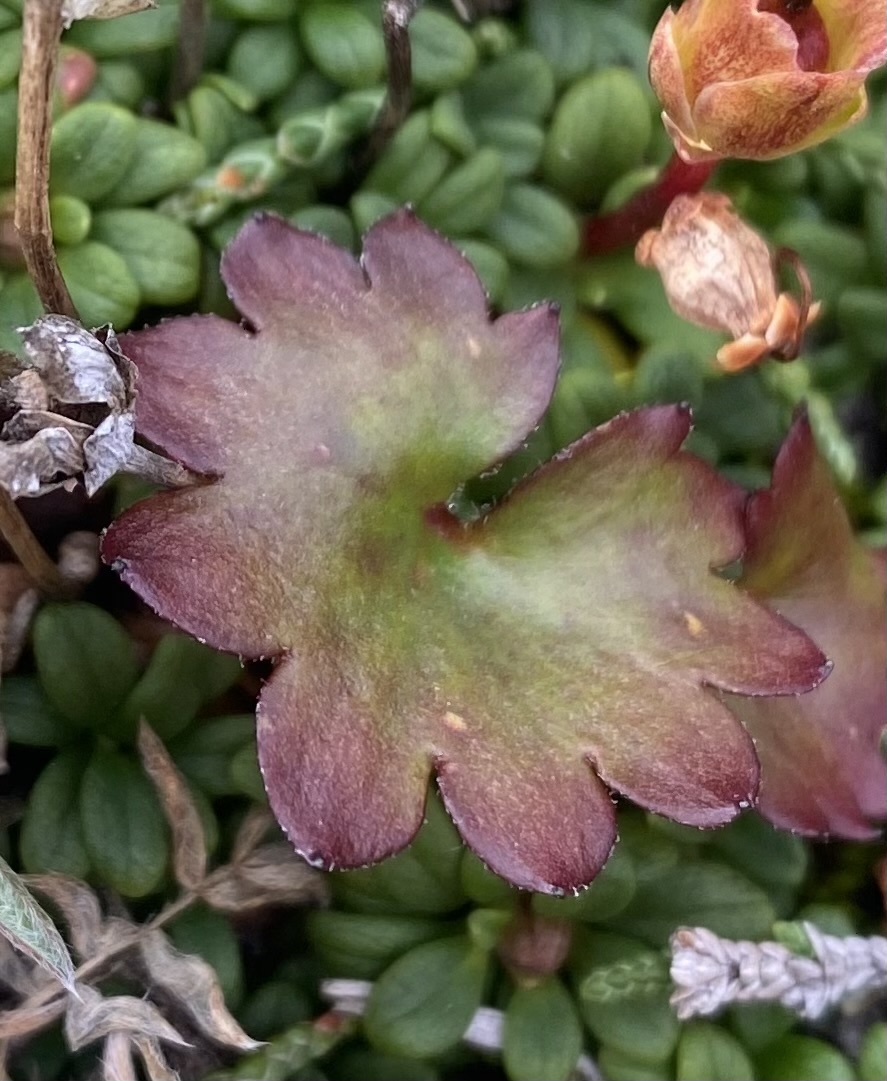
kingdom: Plantae
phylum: Tracheophyta
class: Magnoliopsida
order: Saxifragales
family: Saxifragaceae
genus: Micranthes
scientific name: Micranthes purpurascens
